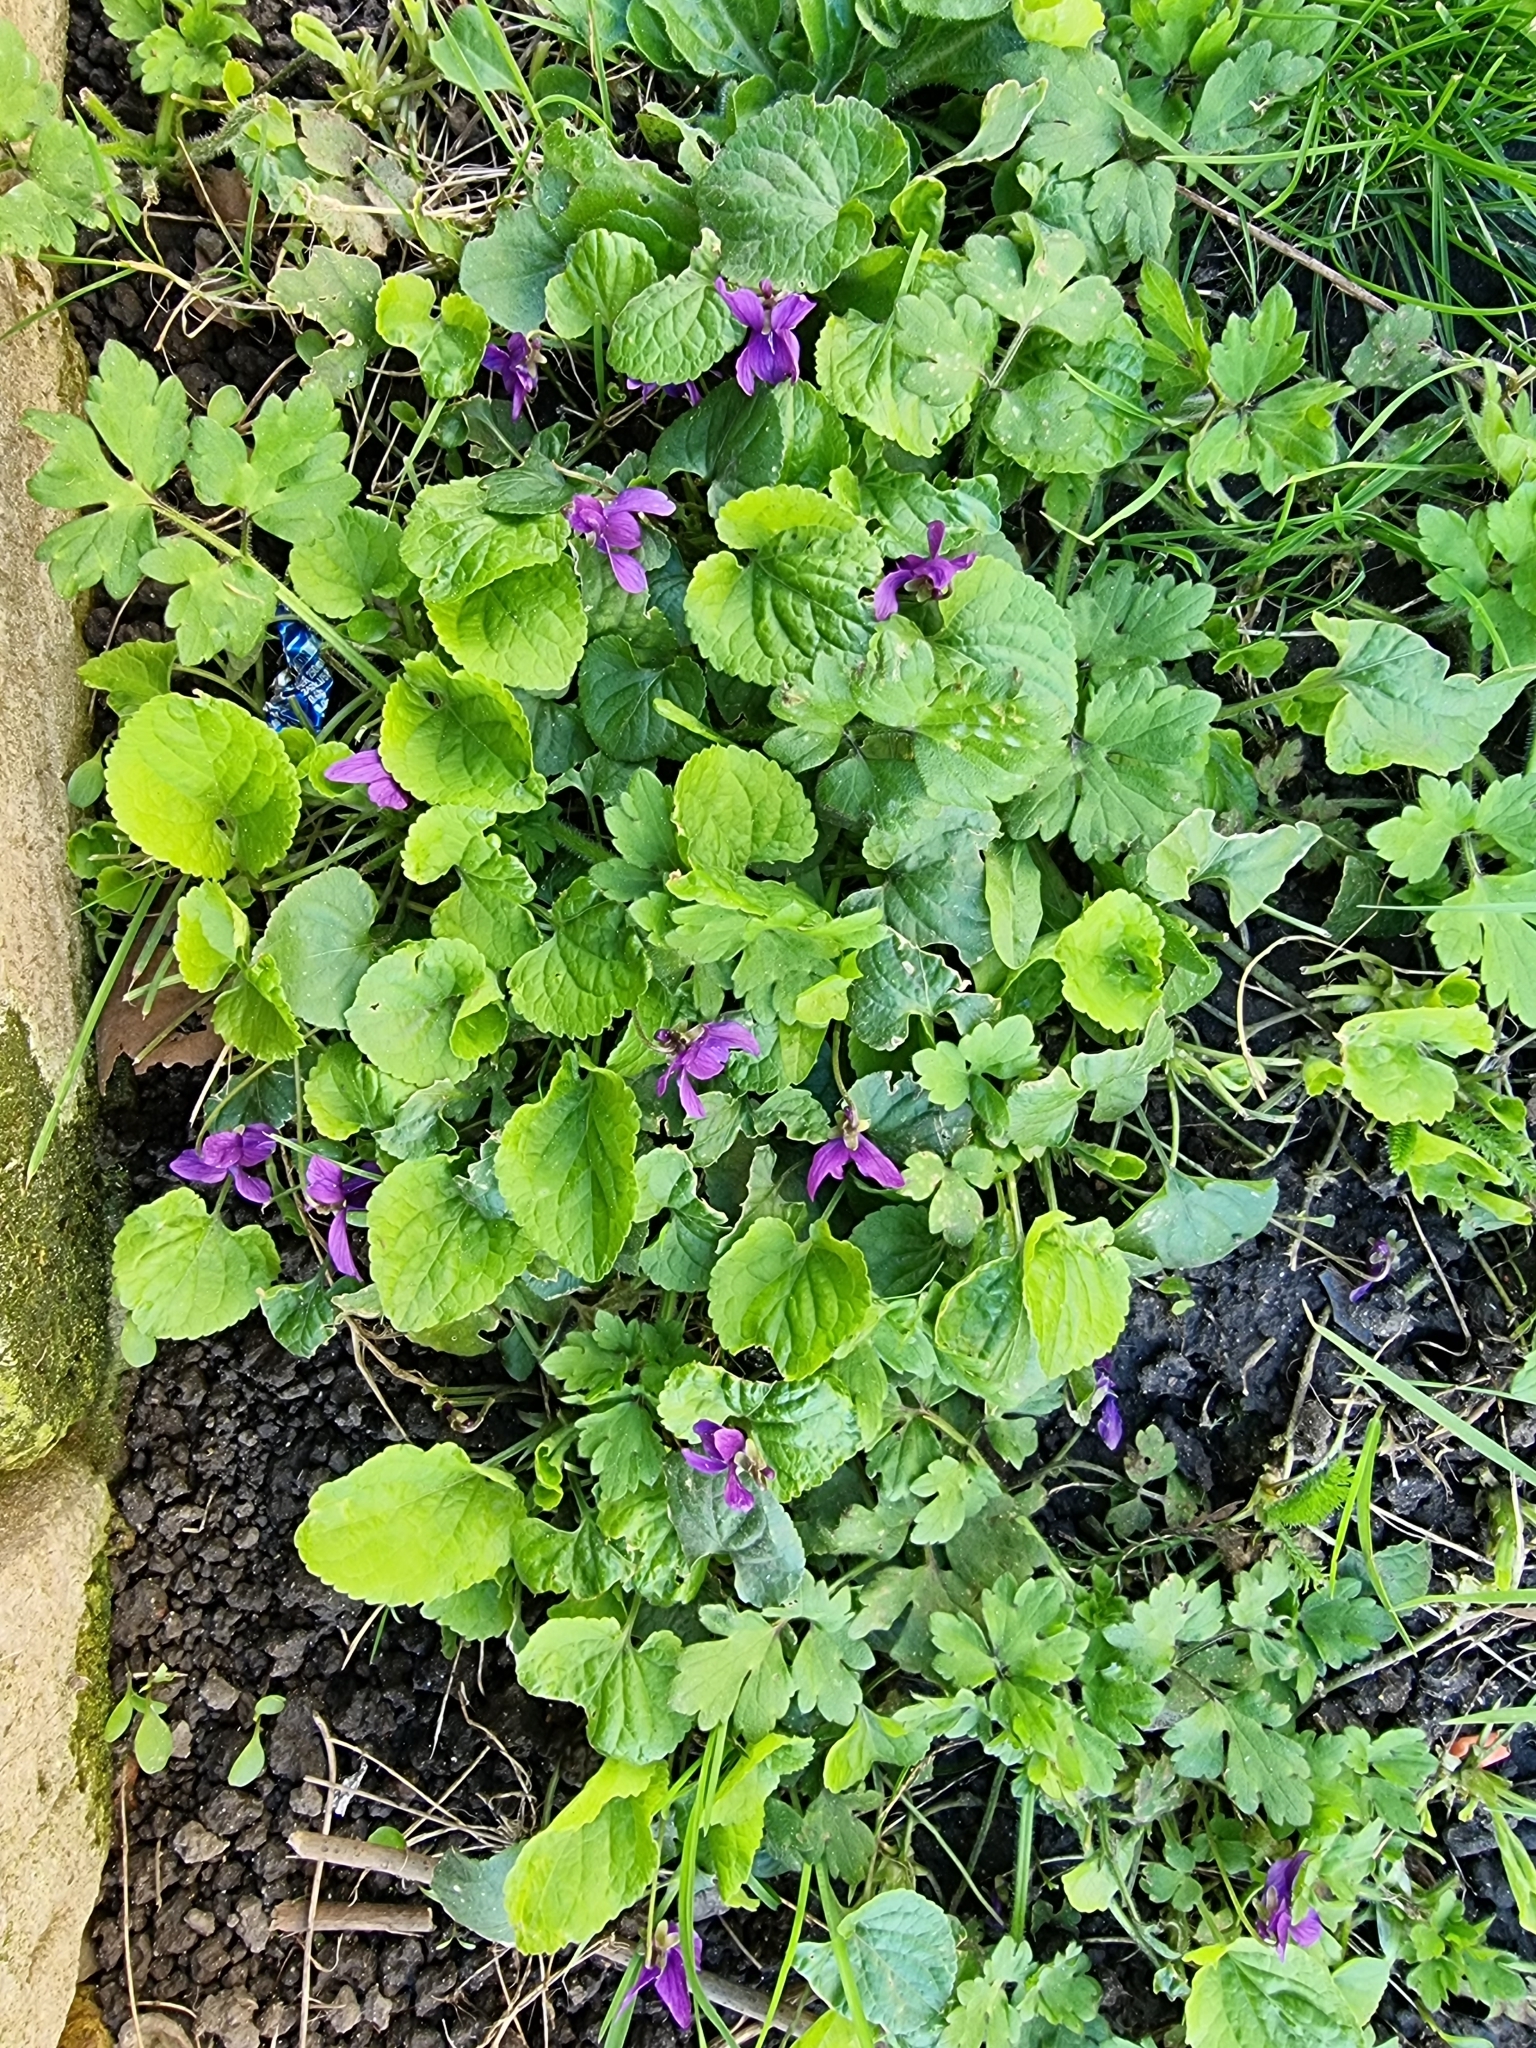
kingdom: Plantae
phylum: Tracheophyta
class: Magnoliopsida
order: Malpighiales
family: Violaceae
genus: Viola
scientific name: Viola odorata
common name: Sweet violet
